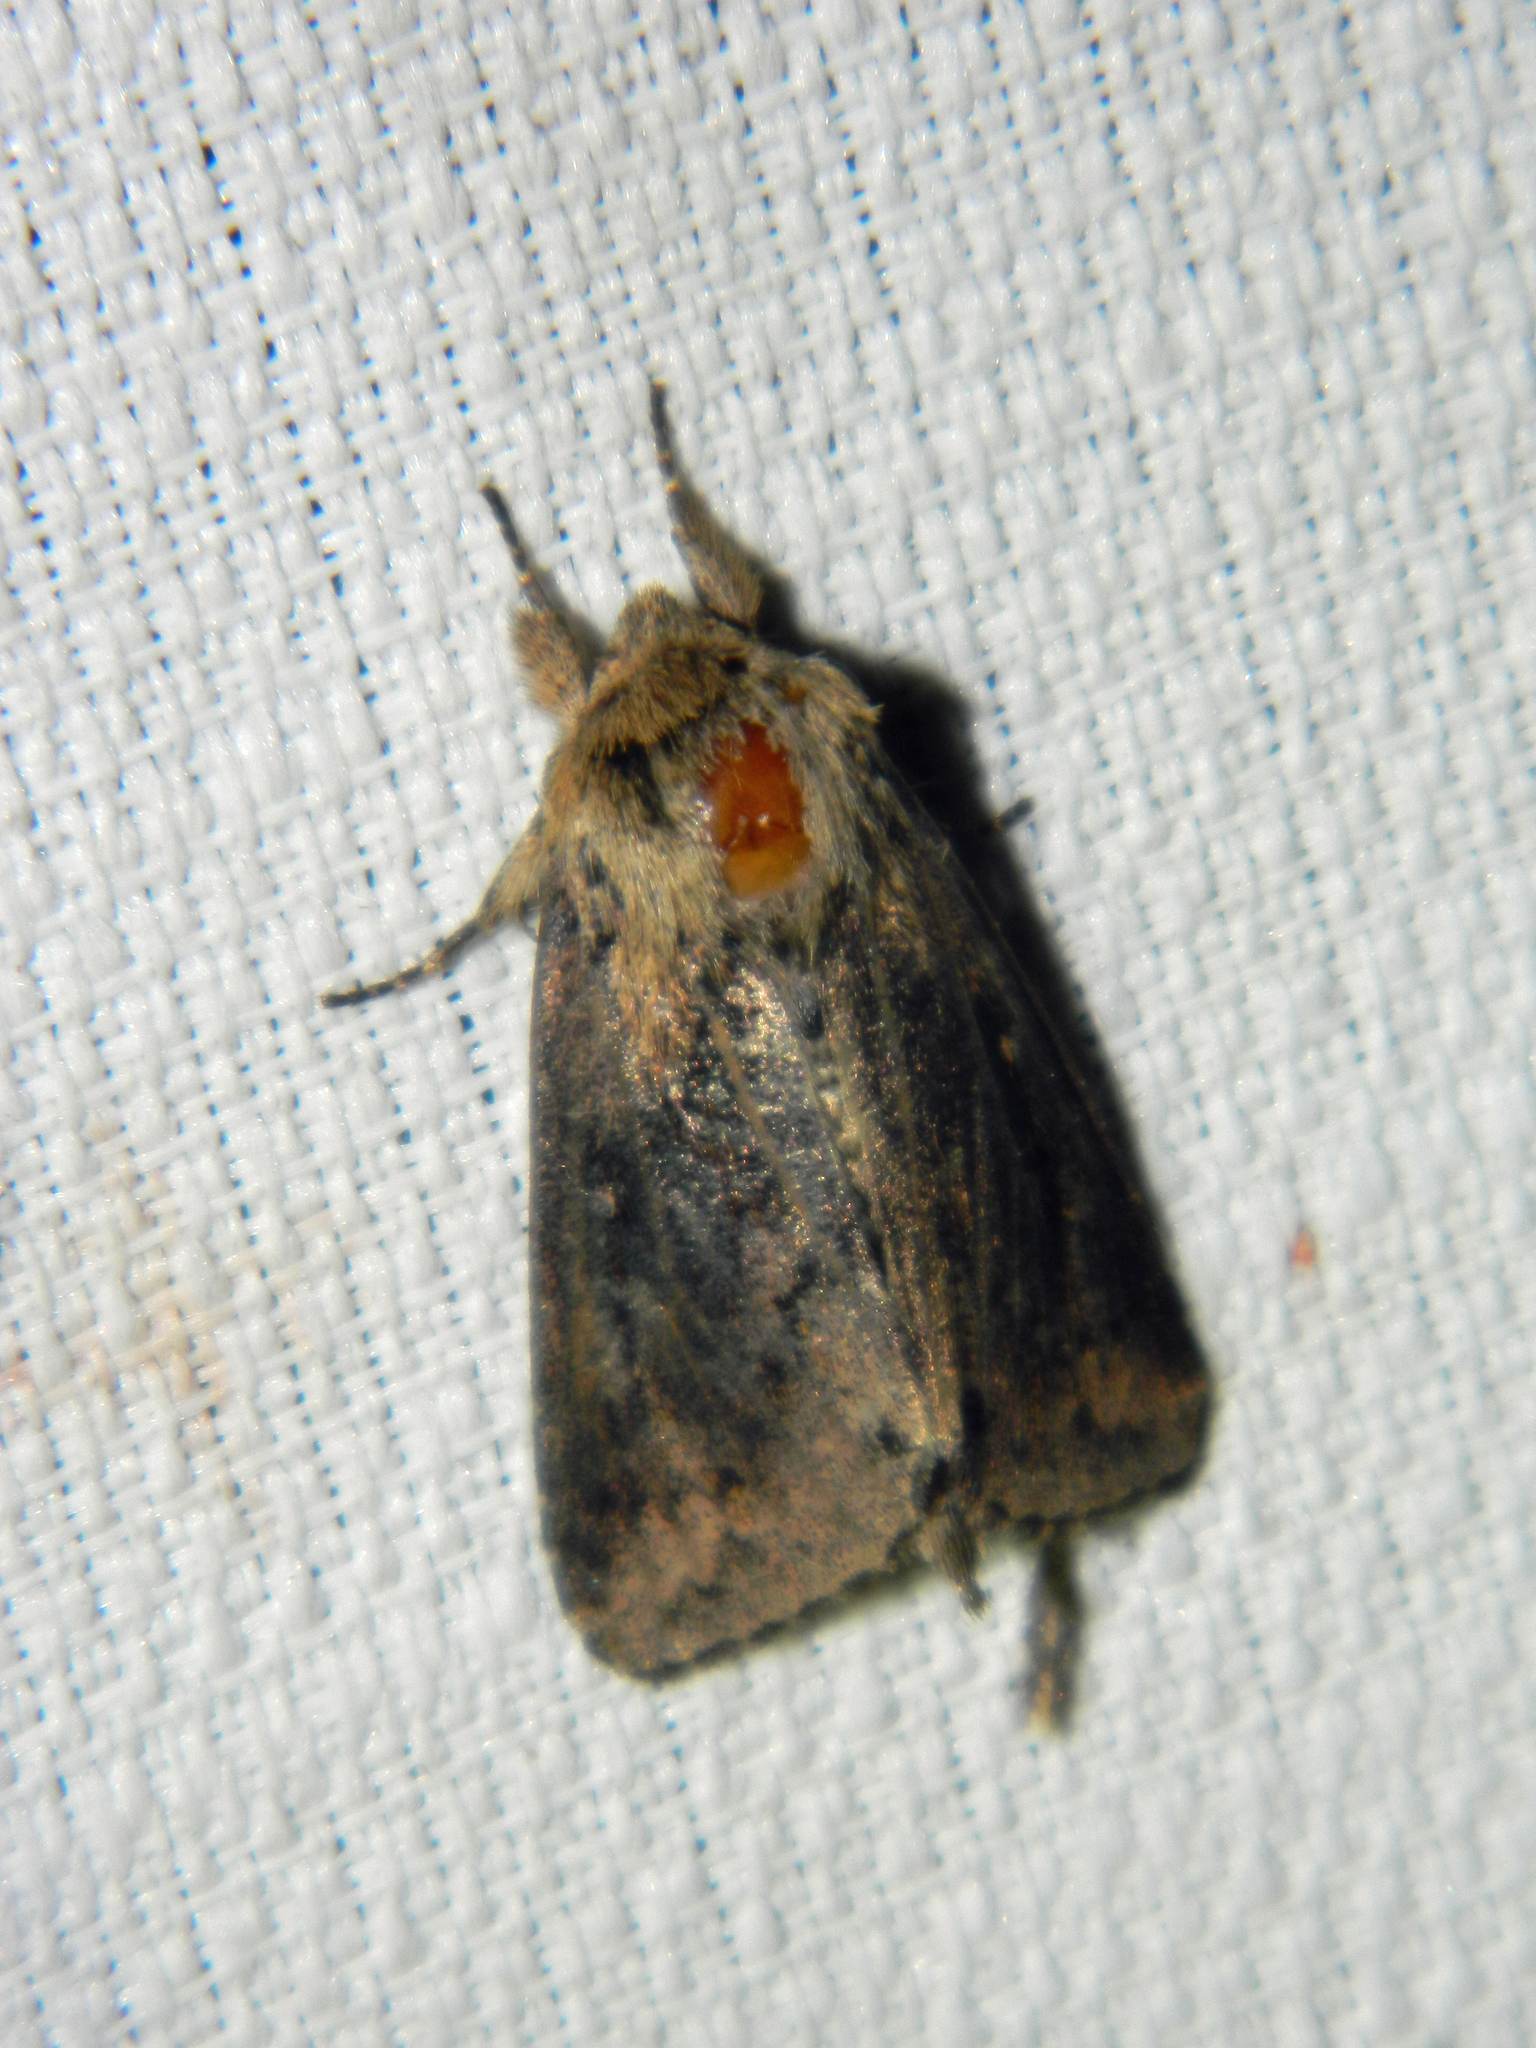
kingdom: Animalia
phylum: Arthropoda
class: Insecta
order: Lepidoptera
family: Noctuidae
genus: Bellura
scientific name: Bellura vulnifica
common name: Black-tailed diver moth
